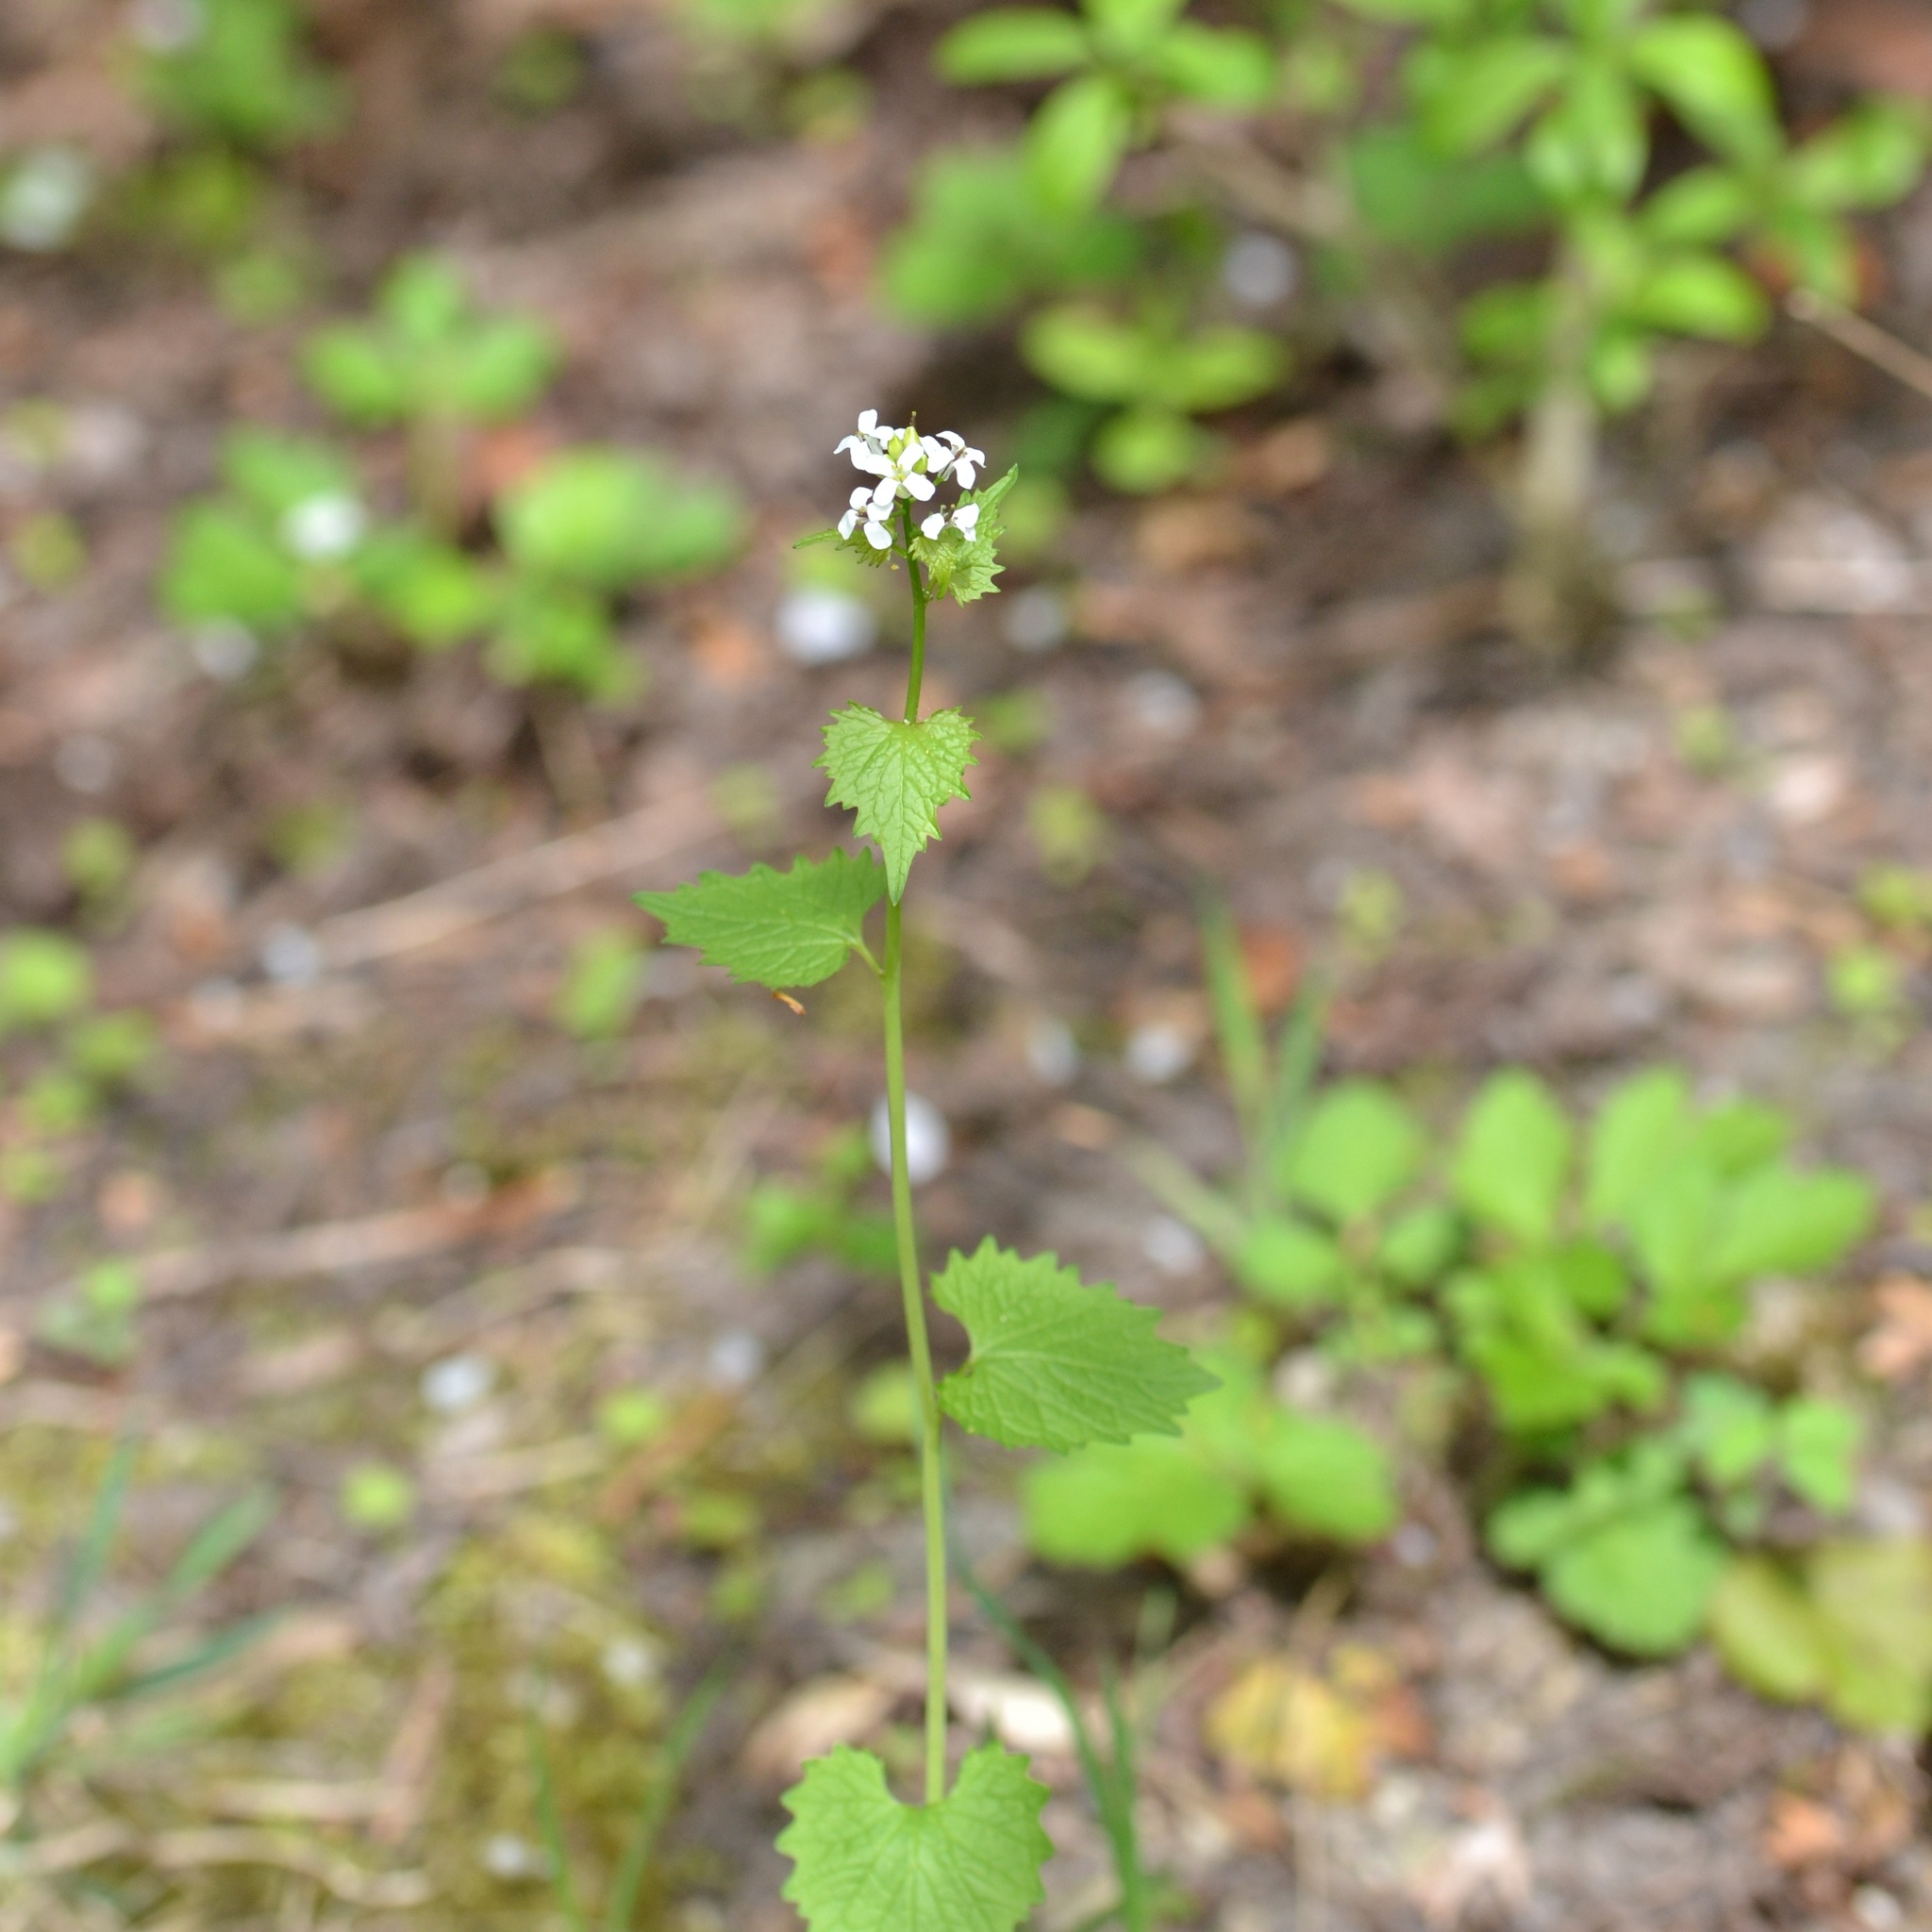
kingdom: Plantae
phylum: Tracheophyta
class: Magnoliopsida
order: Brassicales
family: Brassicaceae
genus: Alliaria
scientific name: Alliaria petiolata
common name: Garlic mustard
